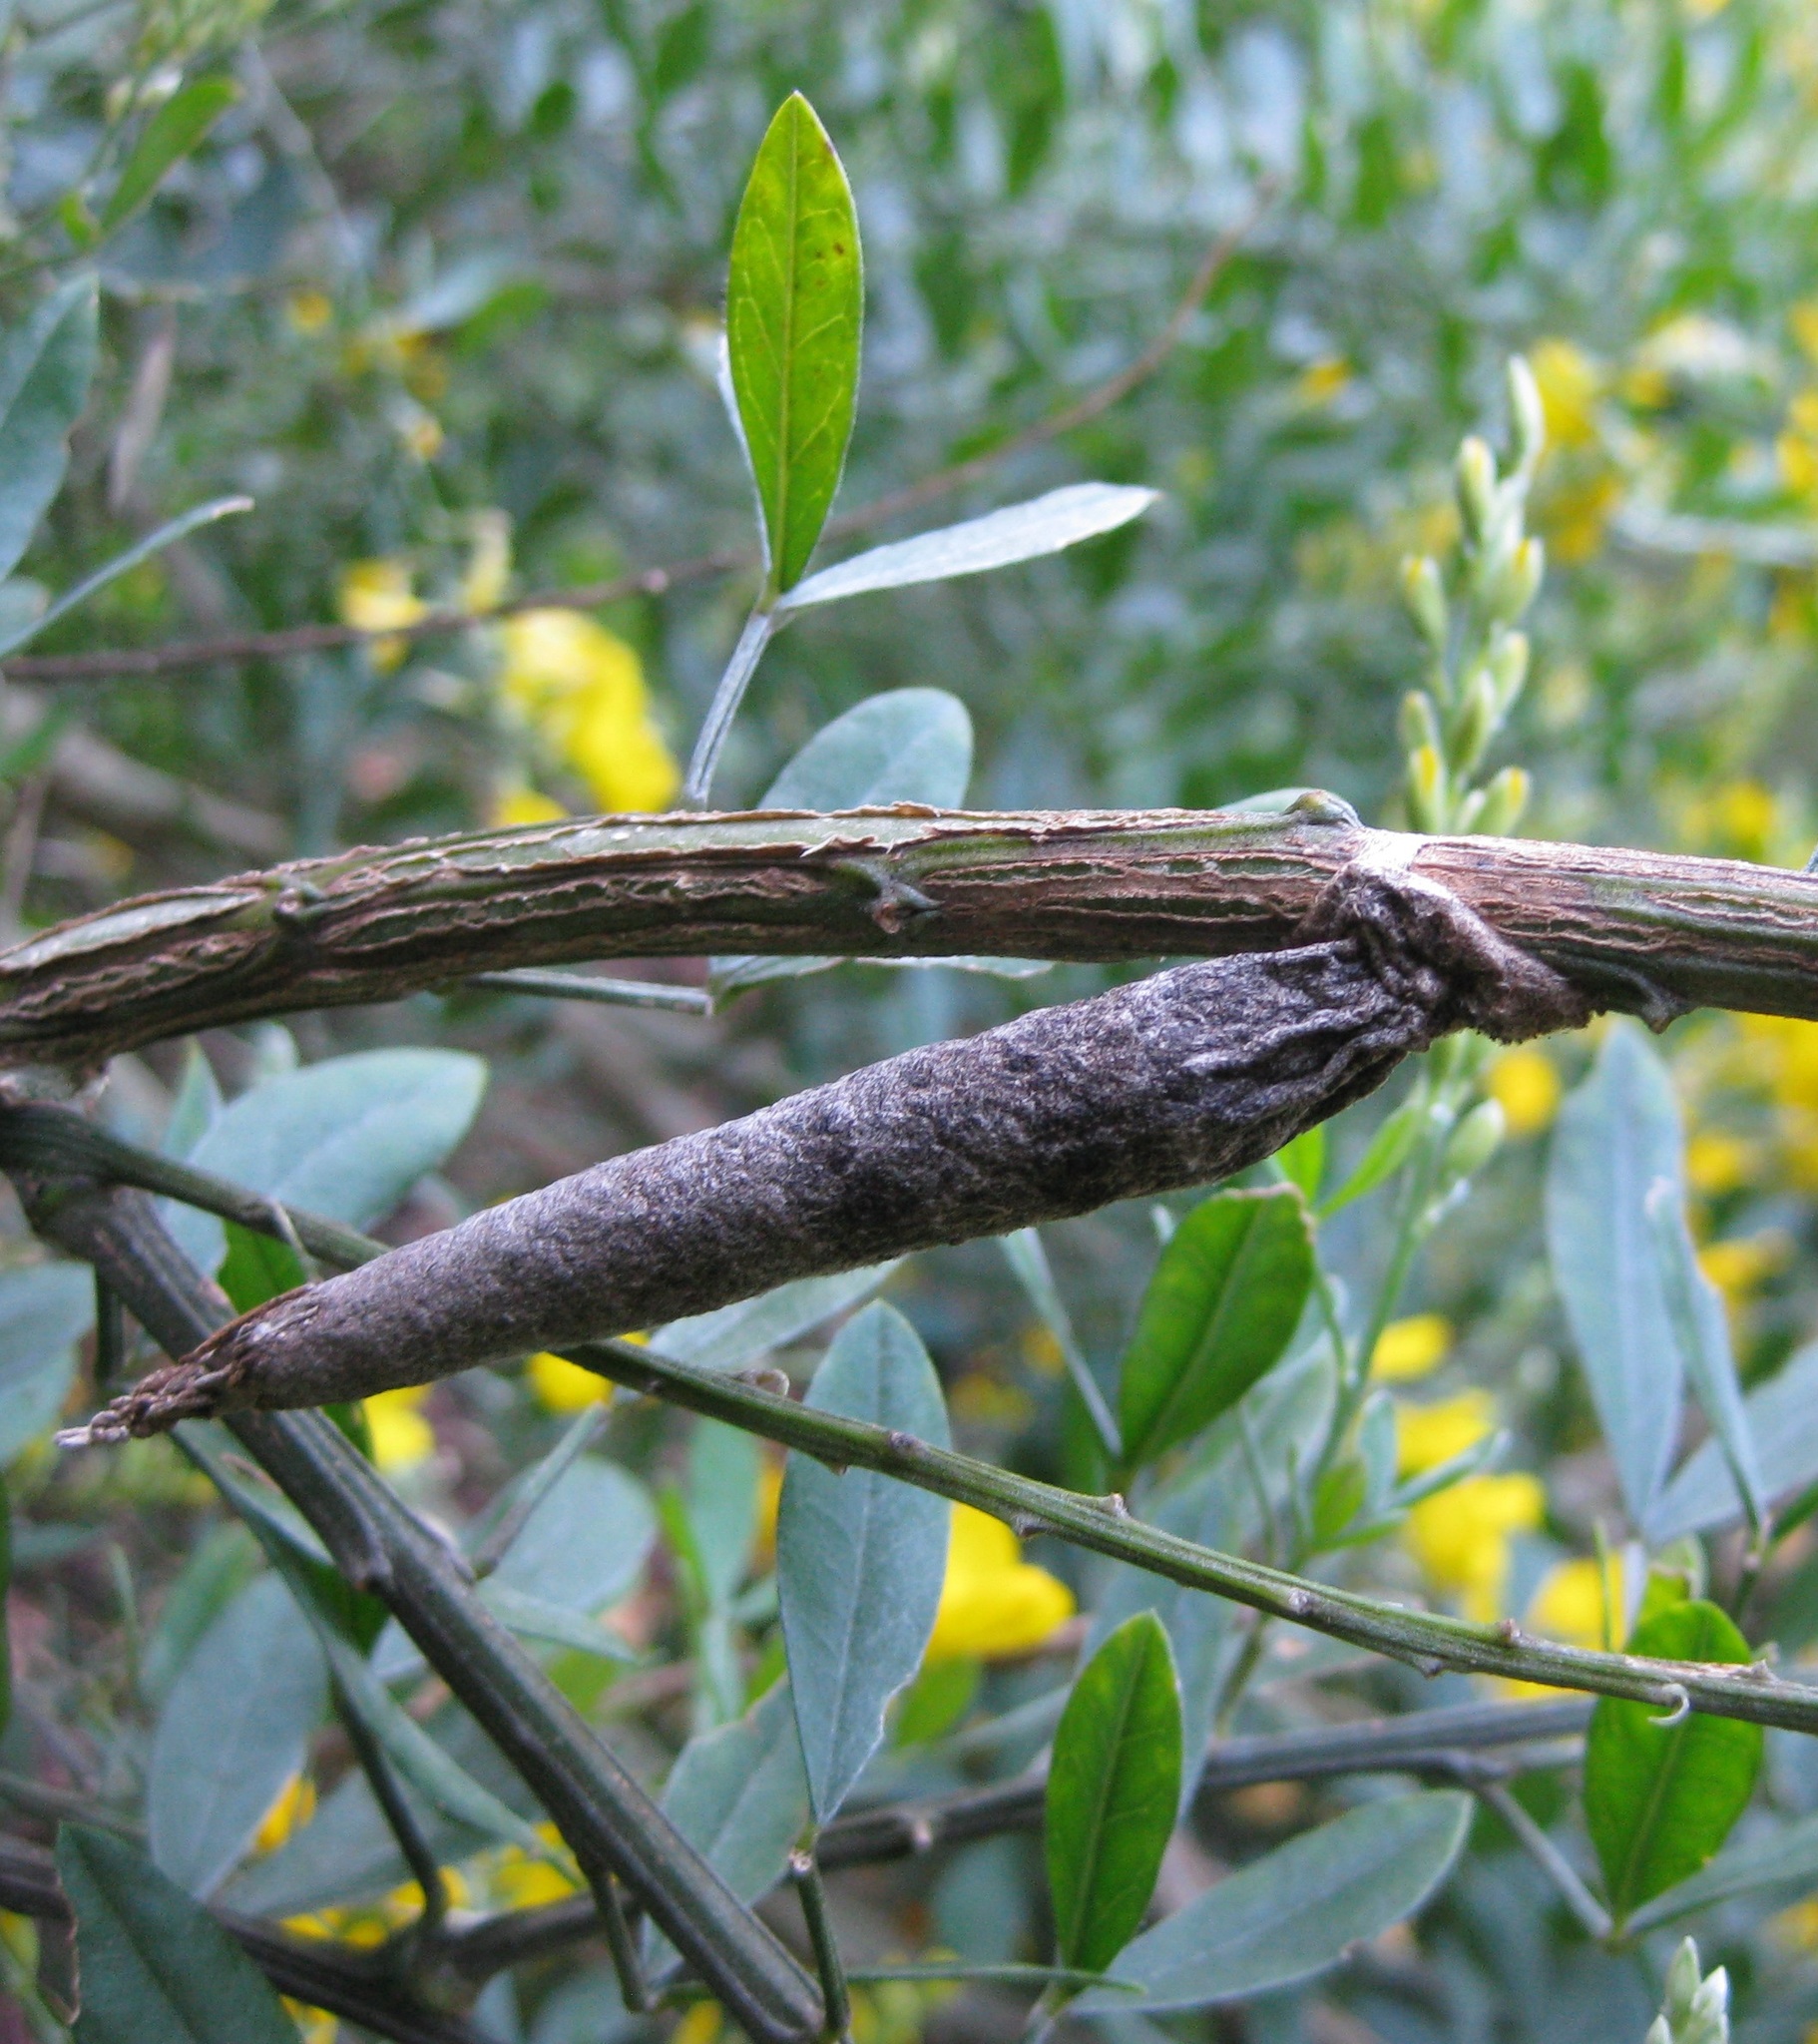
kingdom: Animalia
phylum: Arthropoda
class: Insecta
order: Lepidoptera
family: Psychidae
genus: Liothula
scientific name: Liothula omnivora
